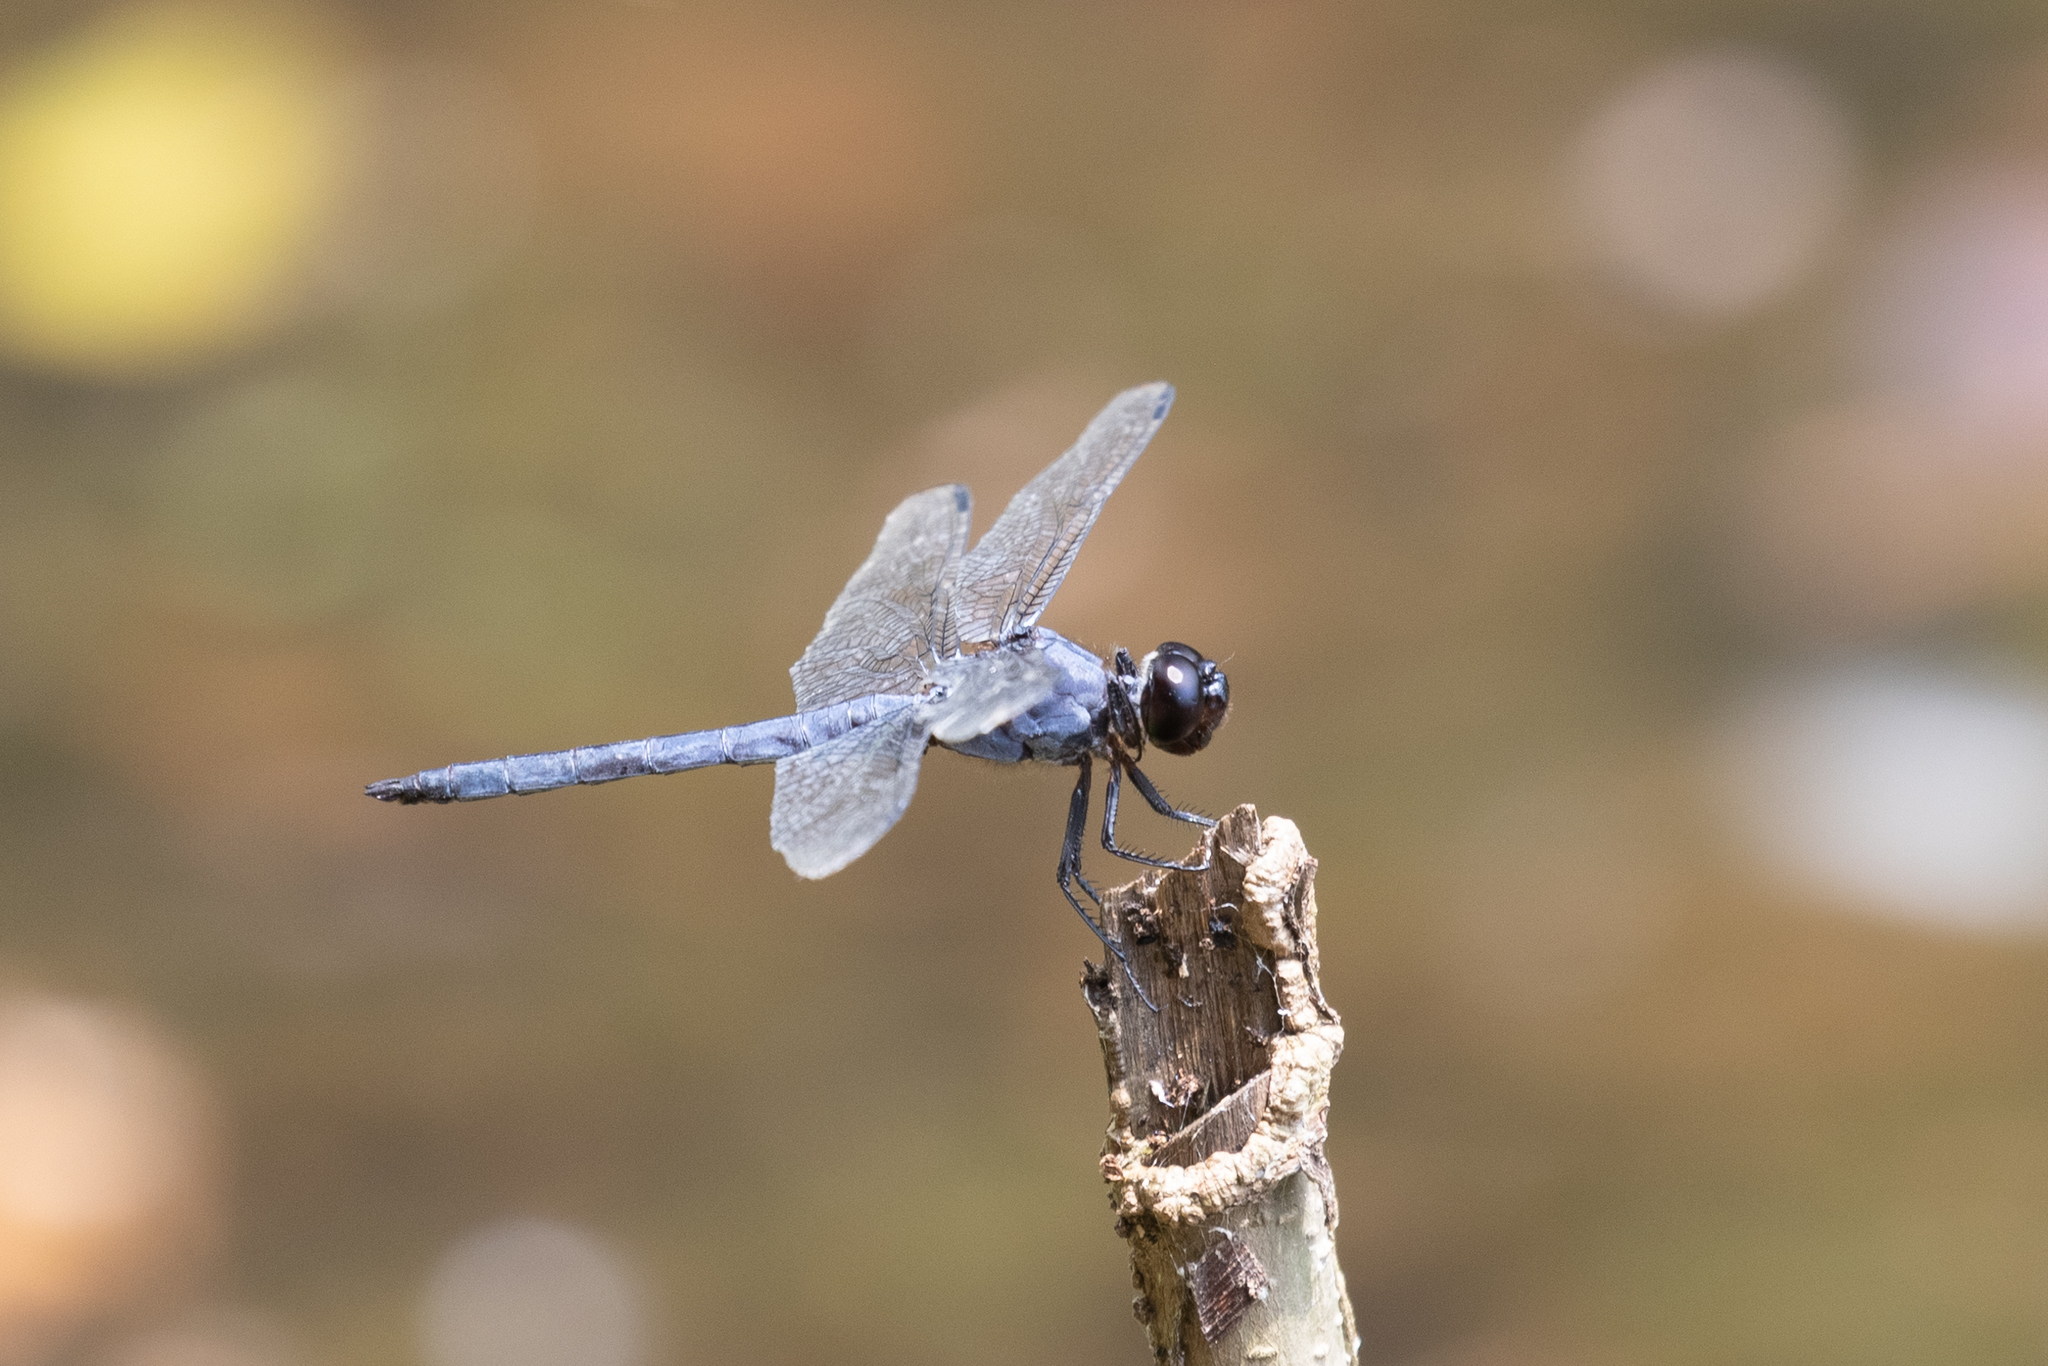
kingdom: Animalia
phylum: Arthropoda
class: Insecta
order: Odonata
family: Libellulidae
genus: Libellula
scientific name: Libellula incesta
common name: Slaty skimmer
